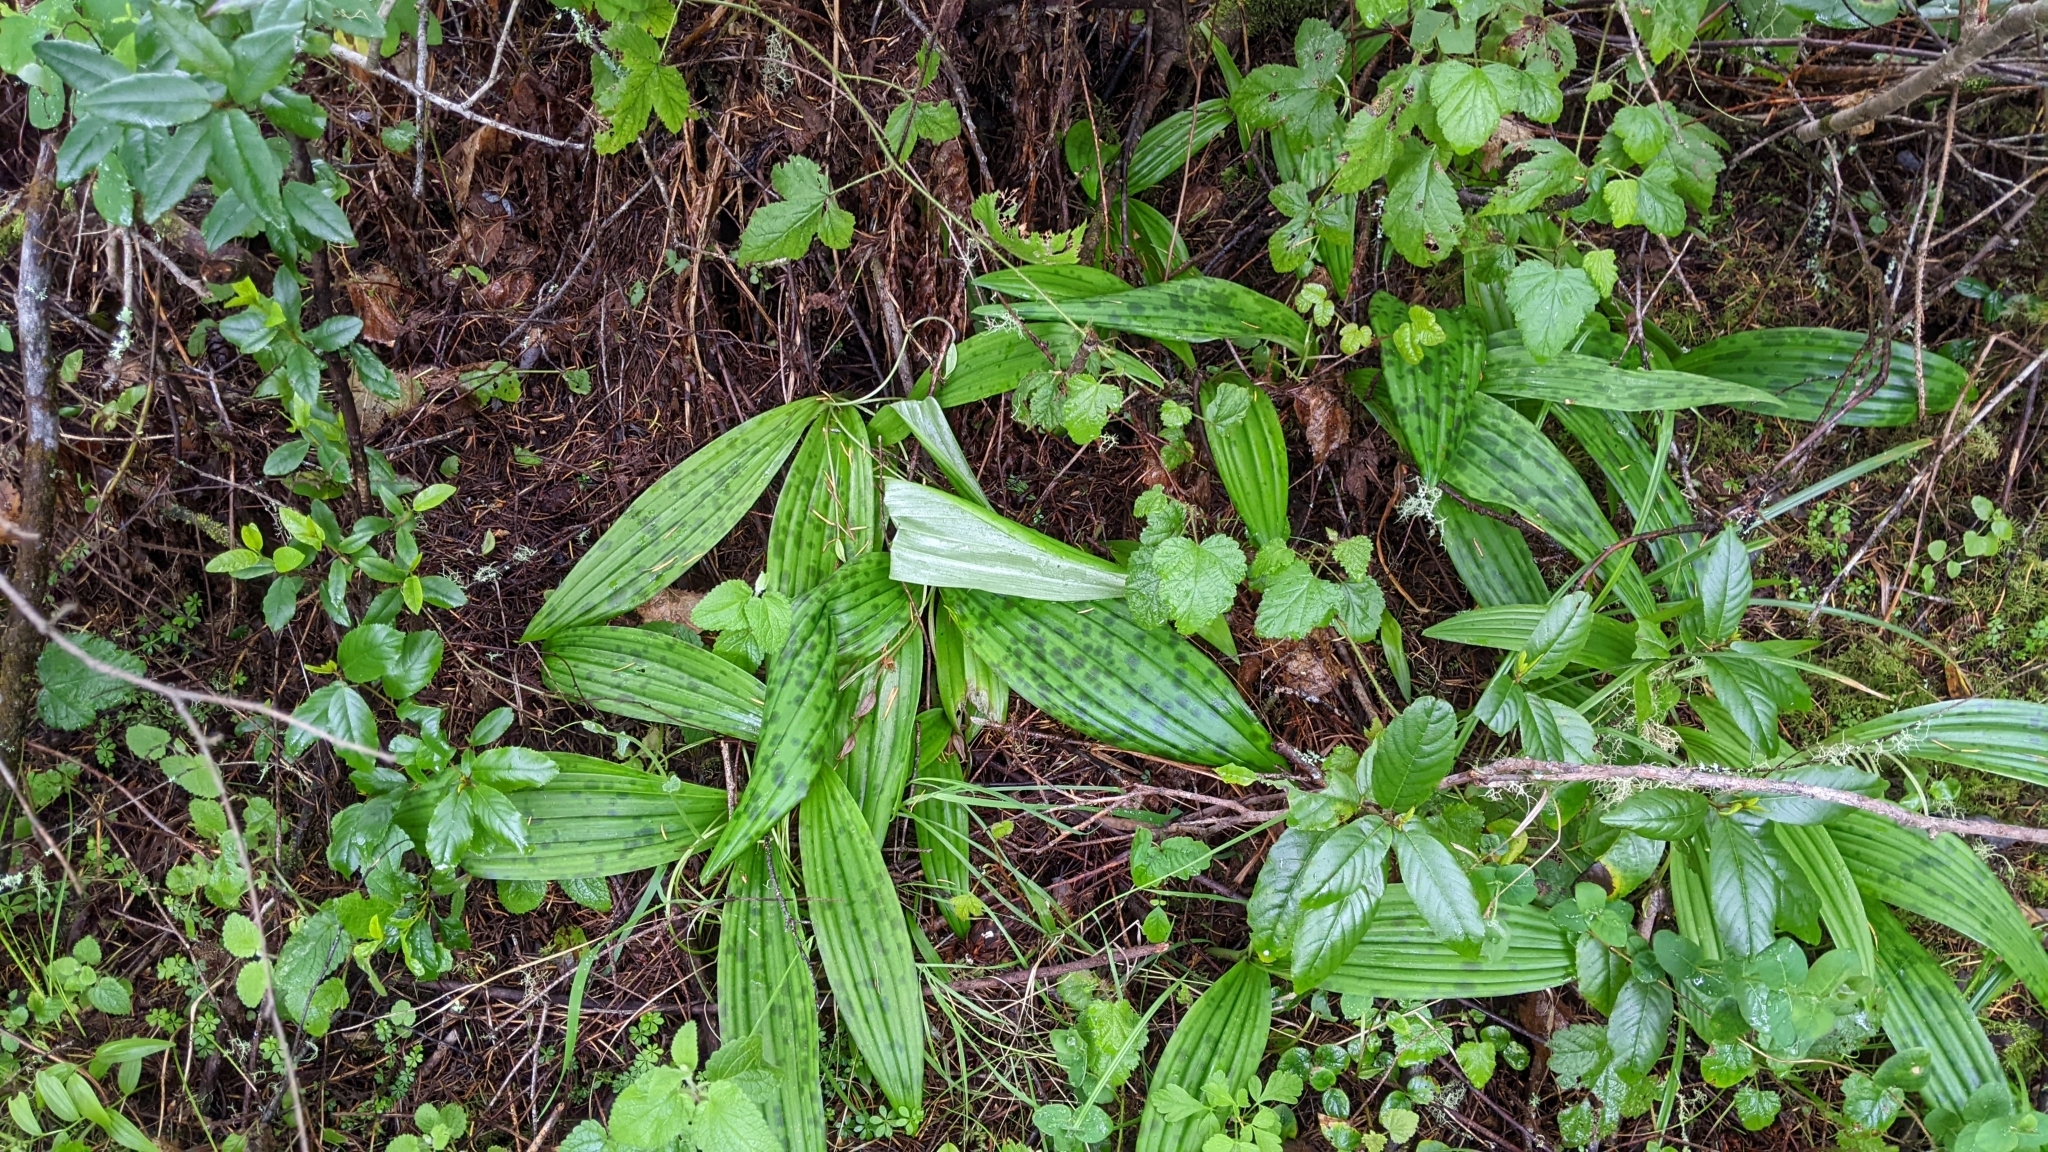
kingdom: Plantae
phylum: Tracheophyta
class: Liliopsida
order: Liliales
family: Liliaceae
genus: Scoliopus
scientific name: Scoliopus bigelovii
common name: Foetid adder's-tongue
